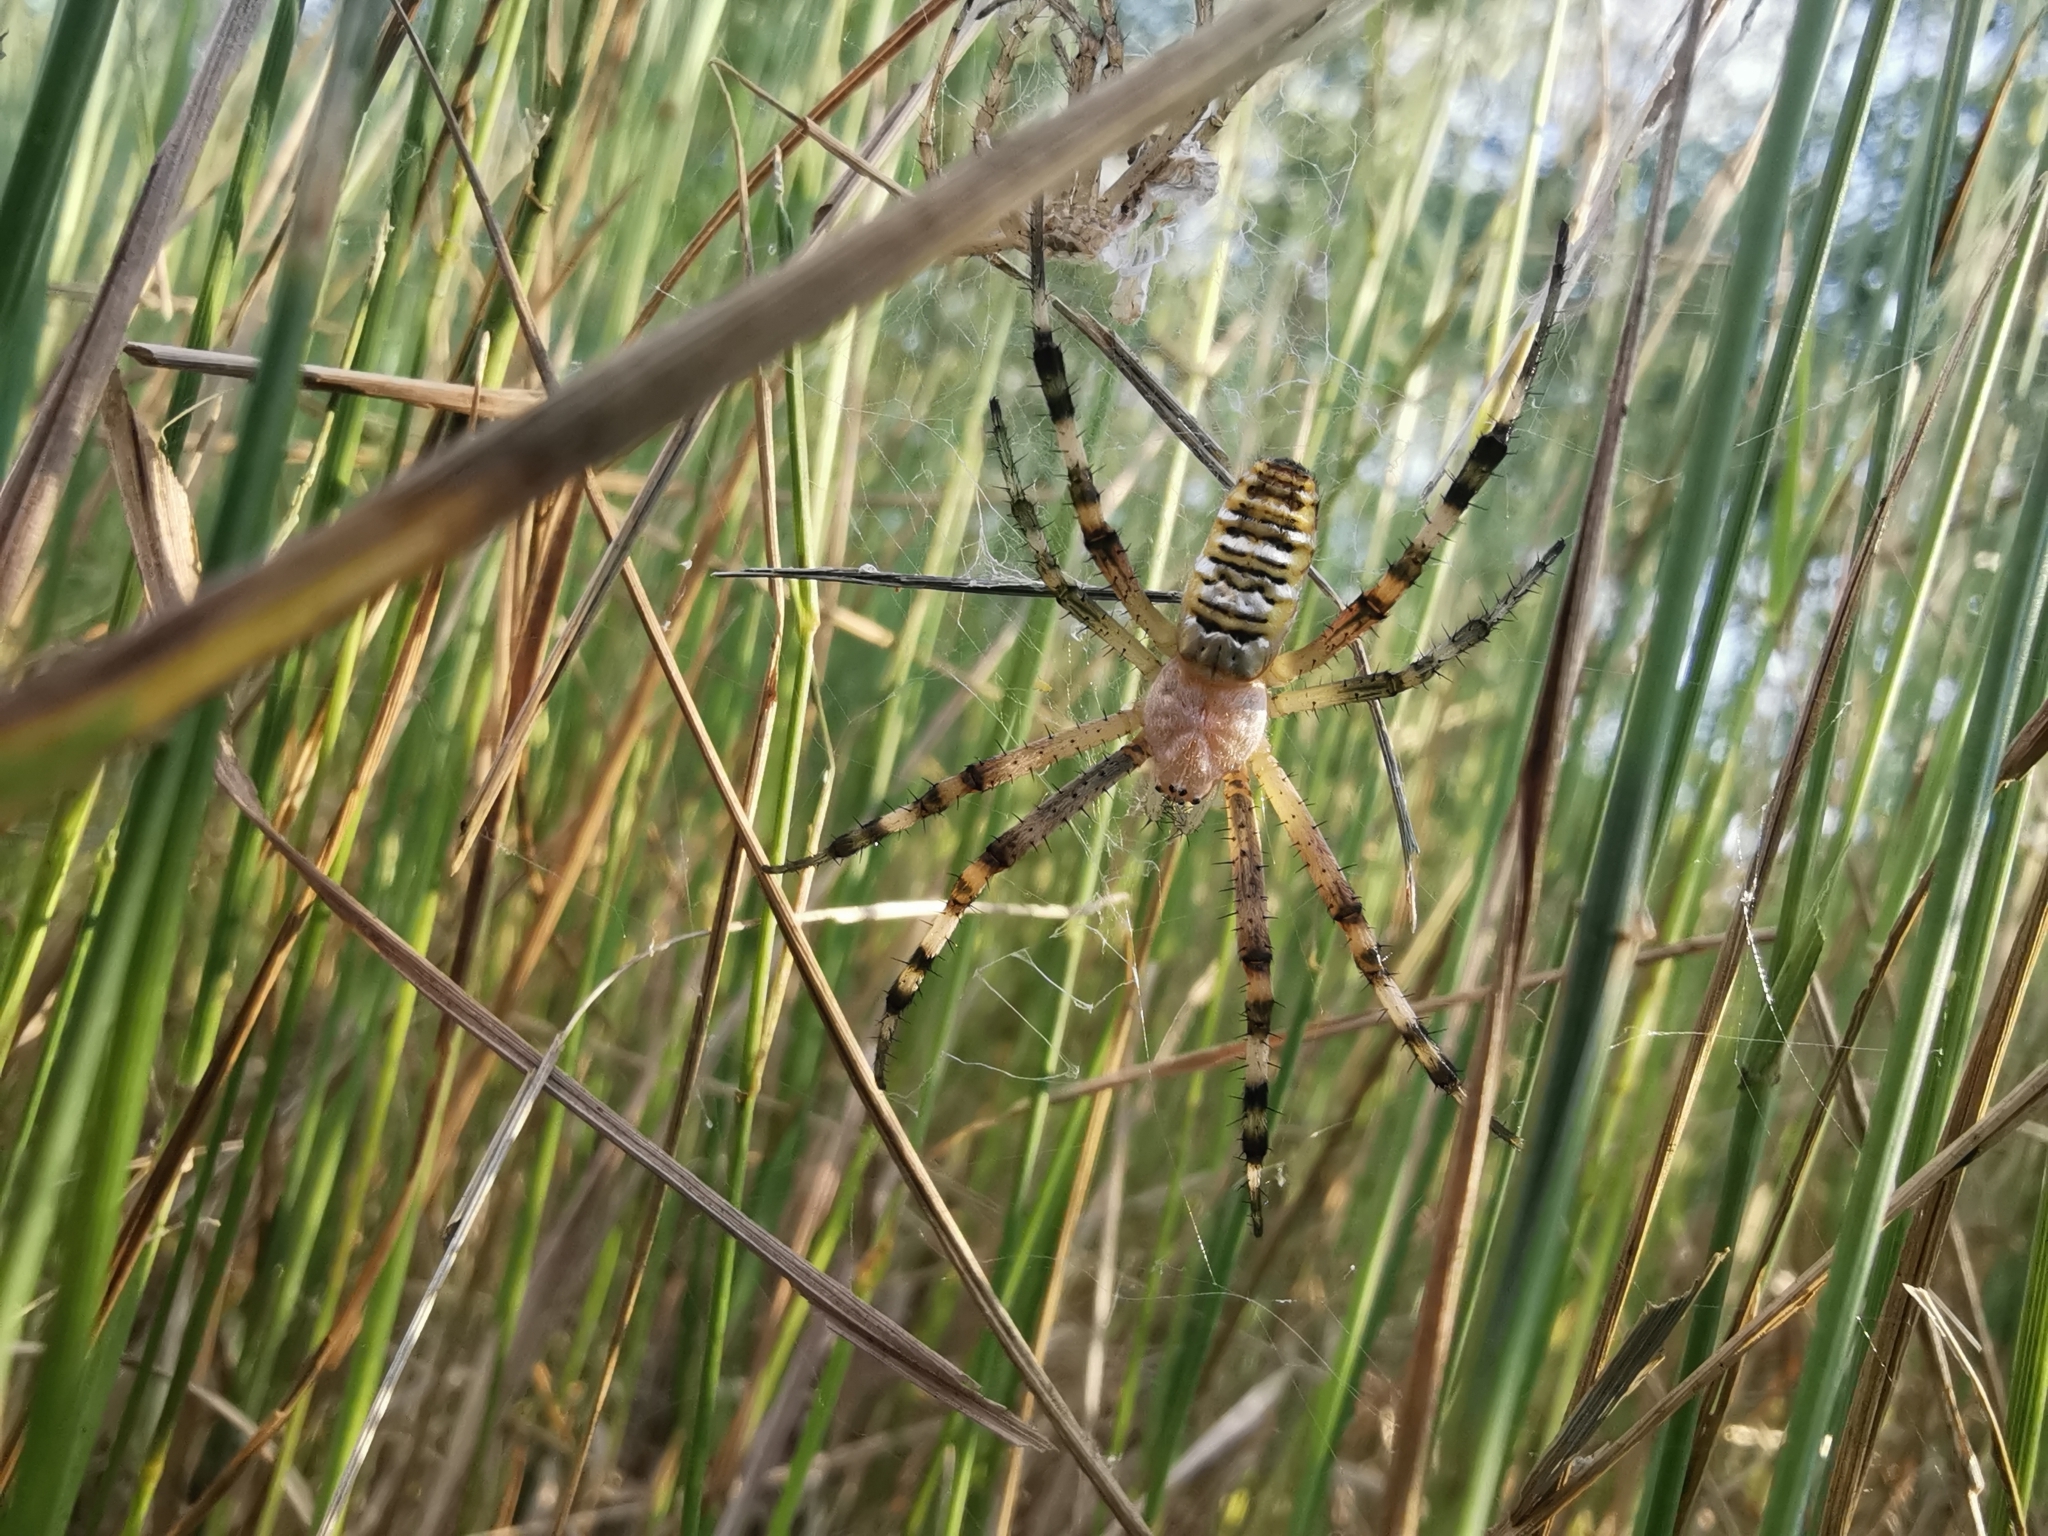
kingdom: Animalia
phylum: Arthropoda
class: Arachnida
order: Araneae
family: Araneidae
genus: Argiope
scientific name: Argiope bruennichi
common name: Wasp spider
